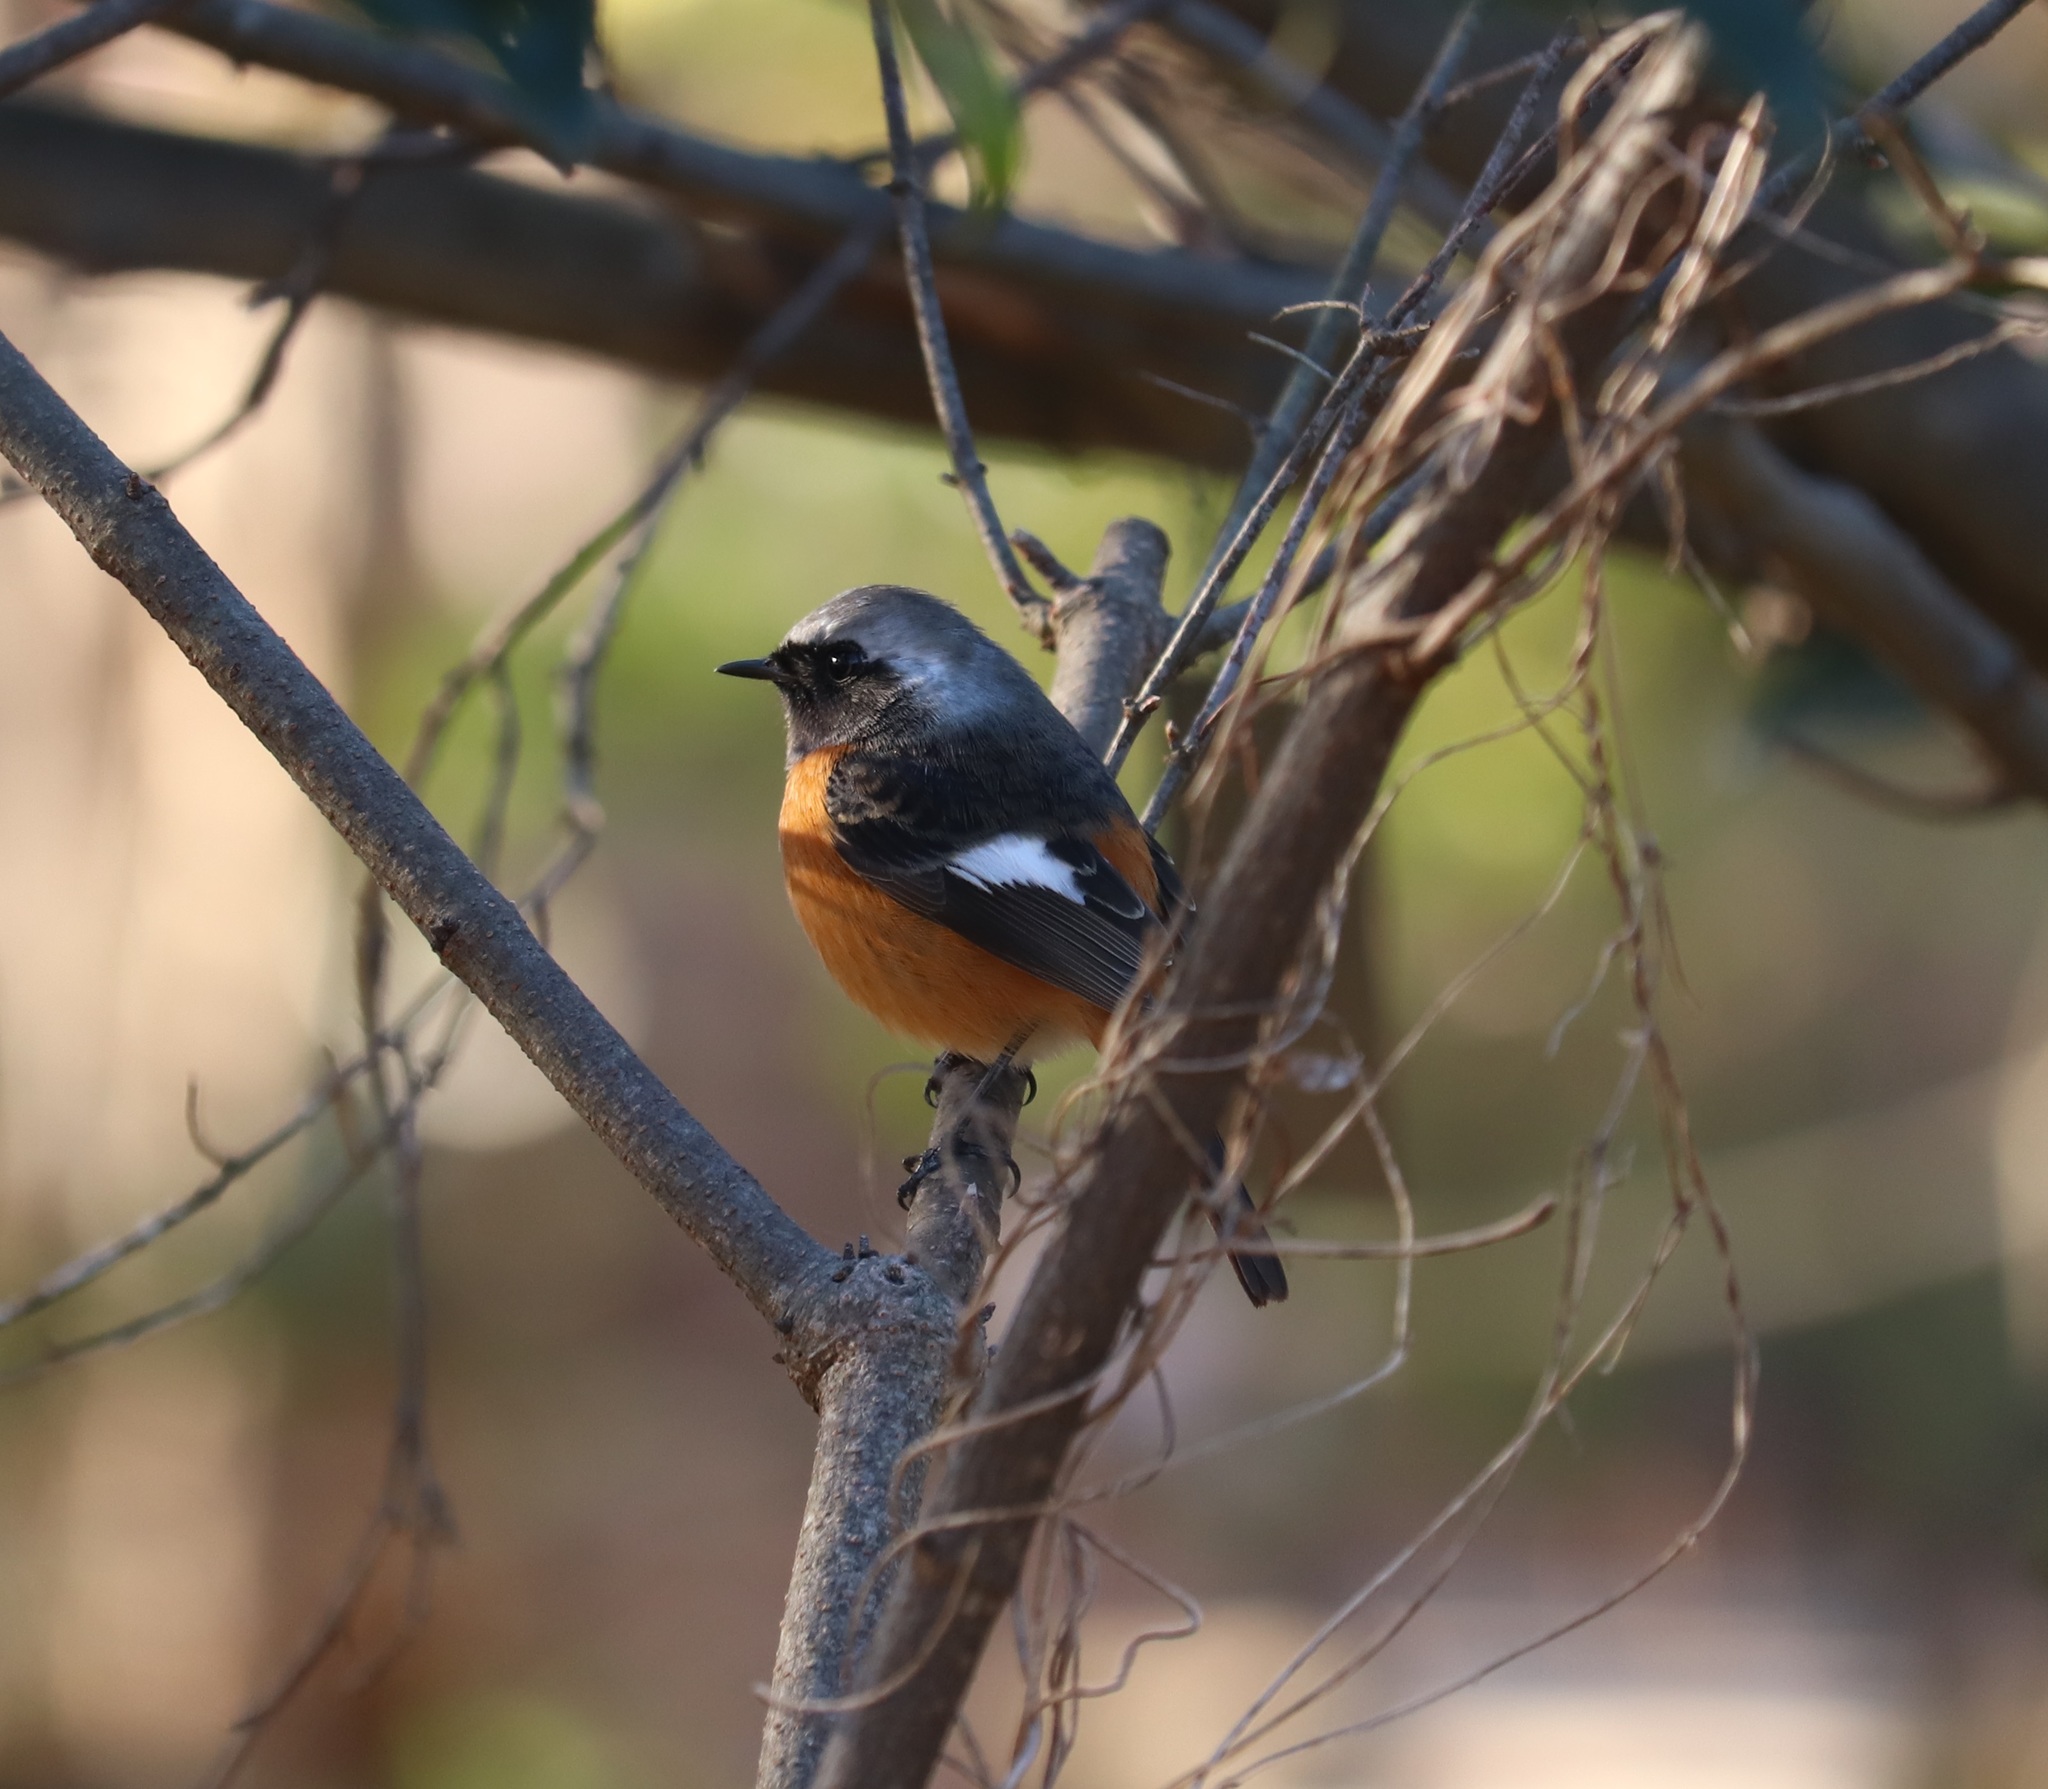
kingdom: Animalia
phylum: Chordata
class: Aves
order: Passeriformes
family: Muscicapidae
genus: Phoenicurus
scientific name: Phoenicurus auroreus
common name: Daurian redstart
